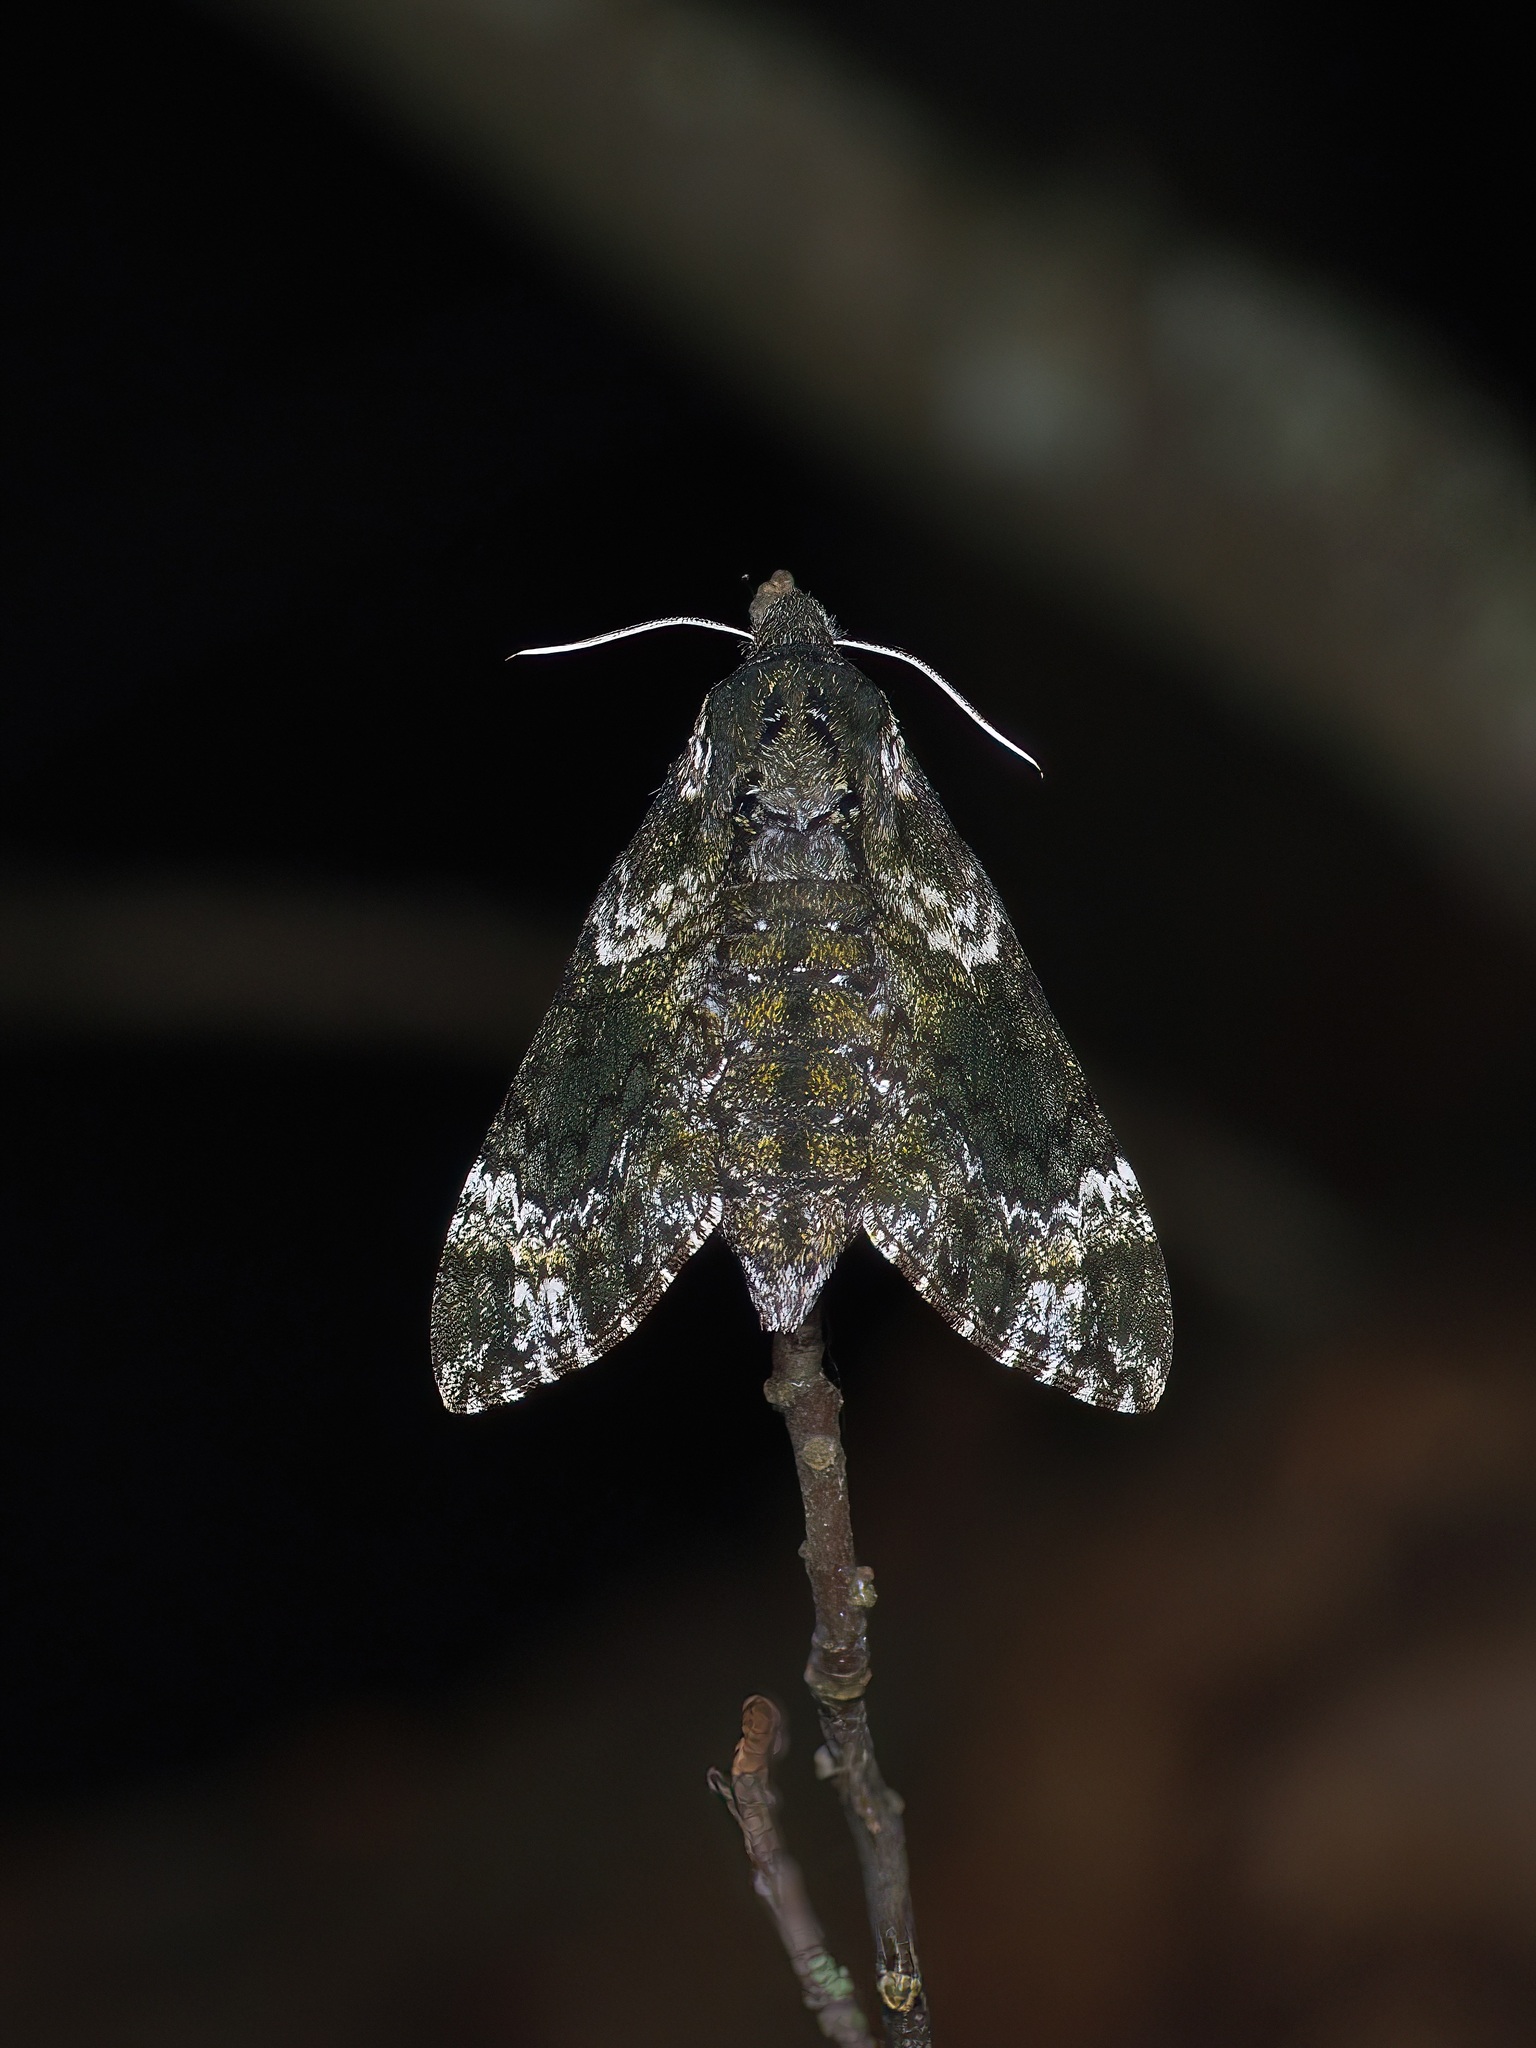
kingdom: Animalia
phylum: Arthropoda
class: Insecta
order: Lepidoptera
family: Sphingidae
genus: Dolba
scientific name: Dolba hyloeus
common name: Pawpaw sphinx
